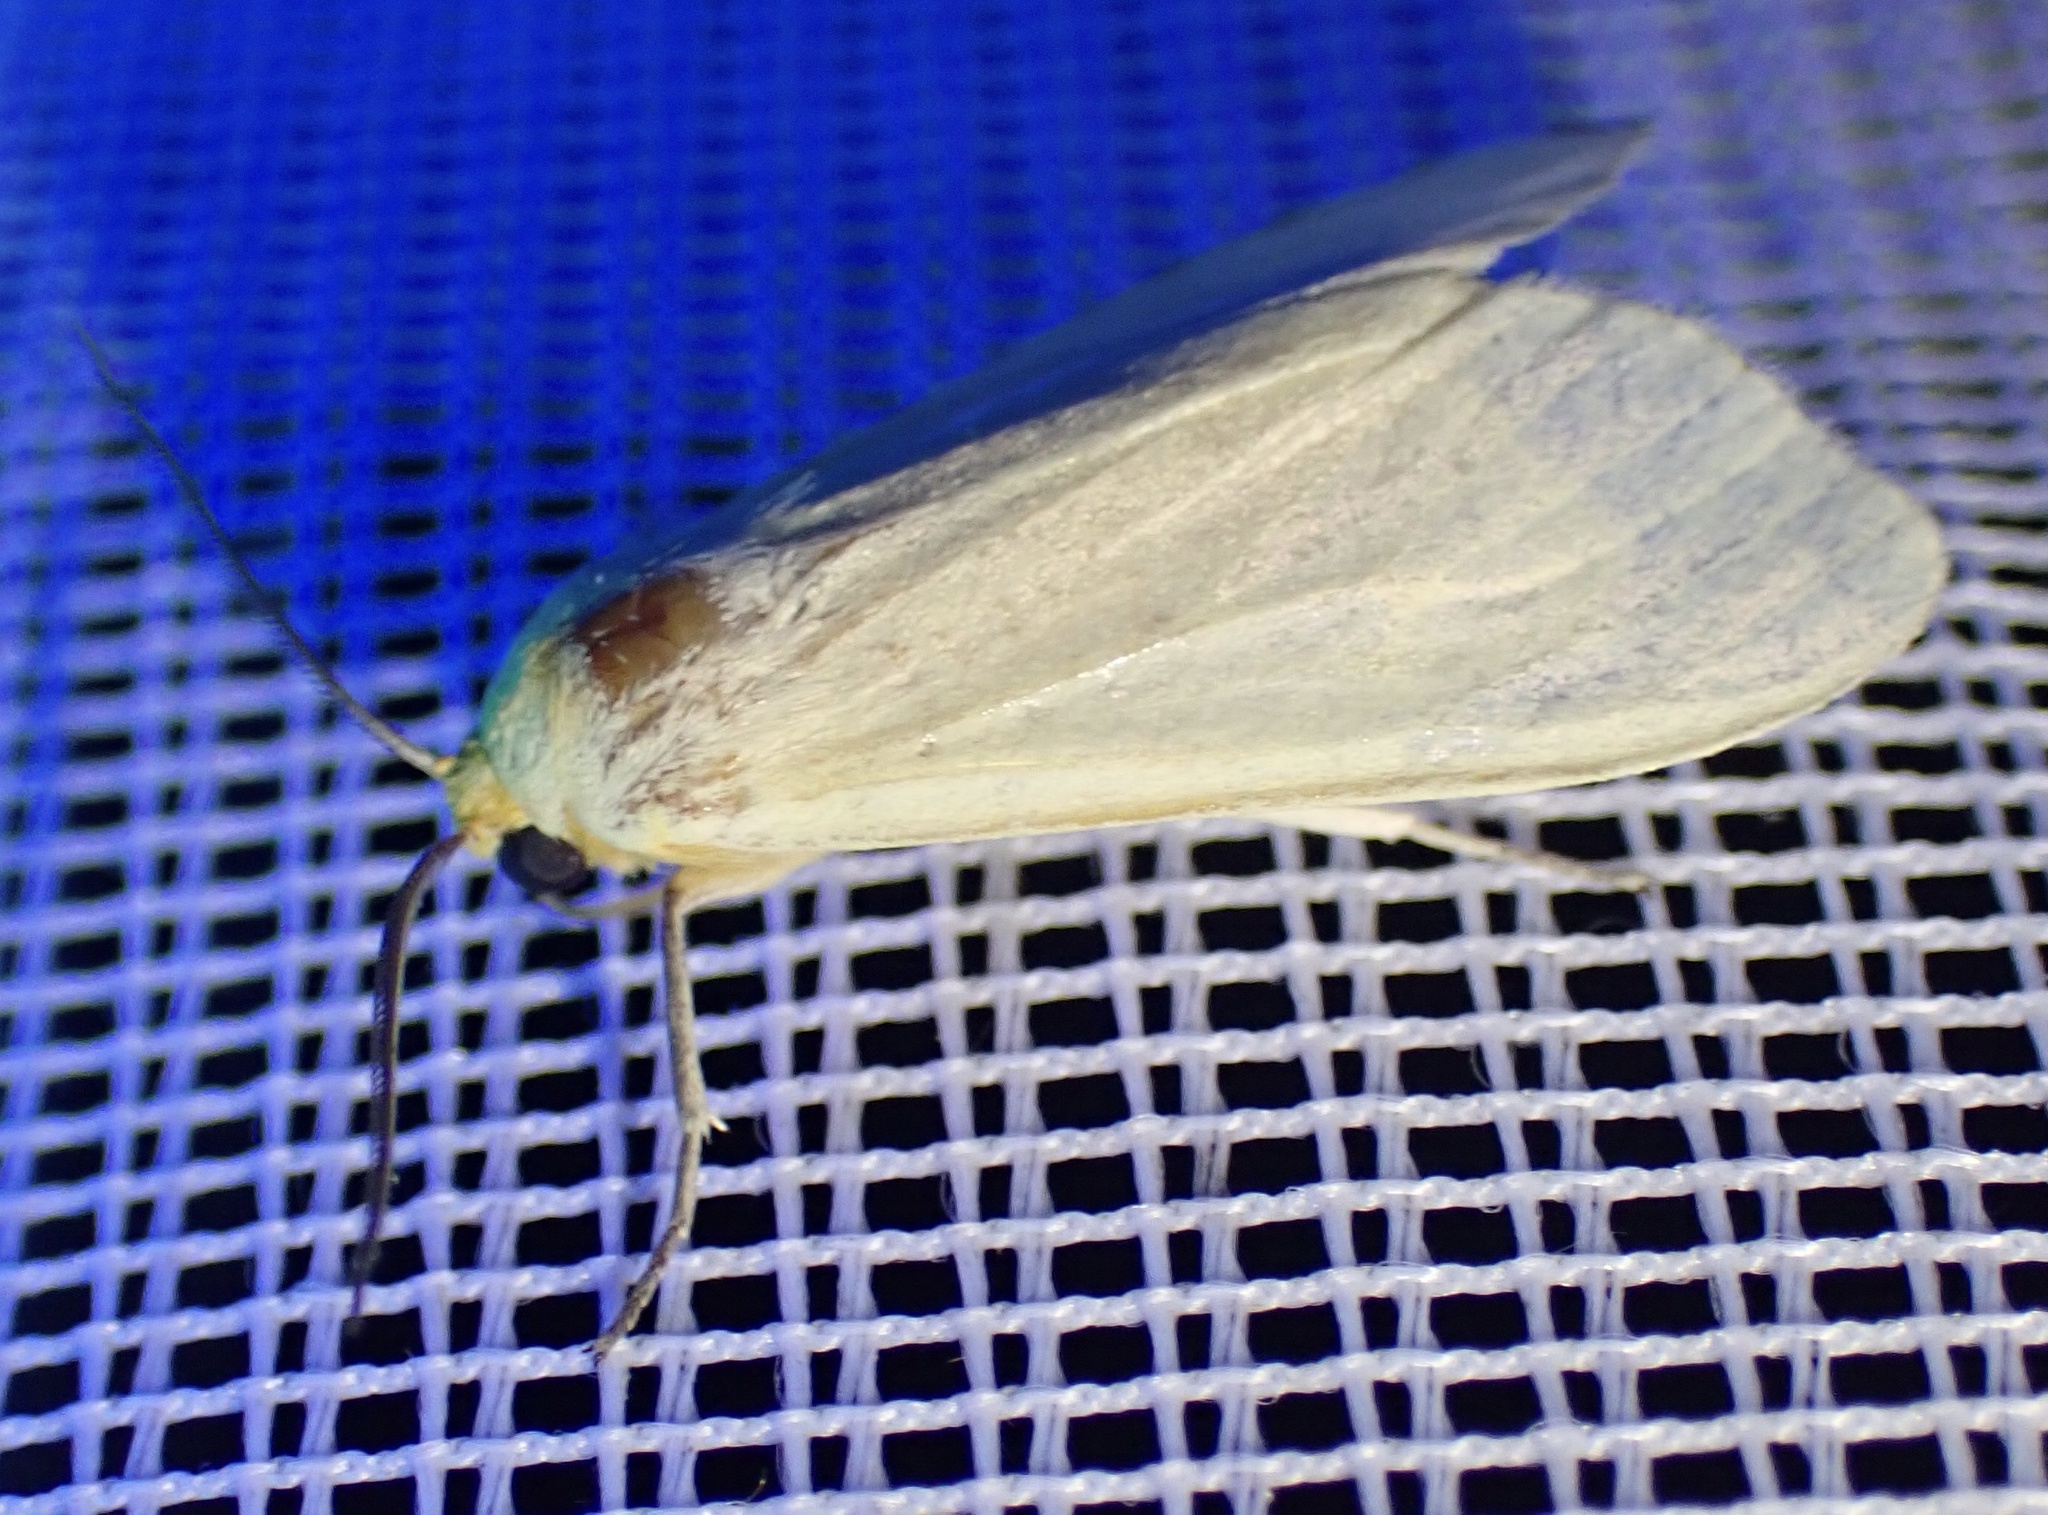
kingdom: Animalia
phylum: Arthropoda
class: Insecta
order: Lepidoptera
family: Erebidae
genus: Pareuchaetes
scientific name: Pareuchaetes pseudoinsulata
